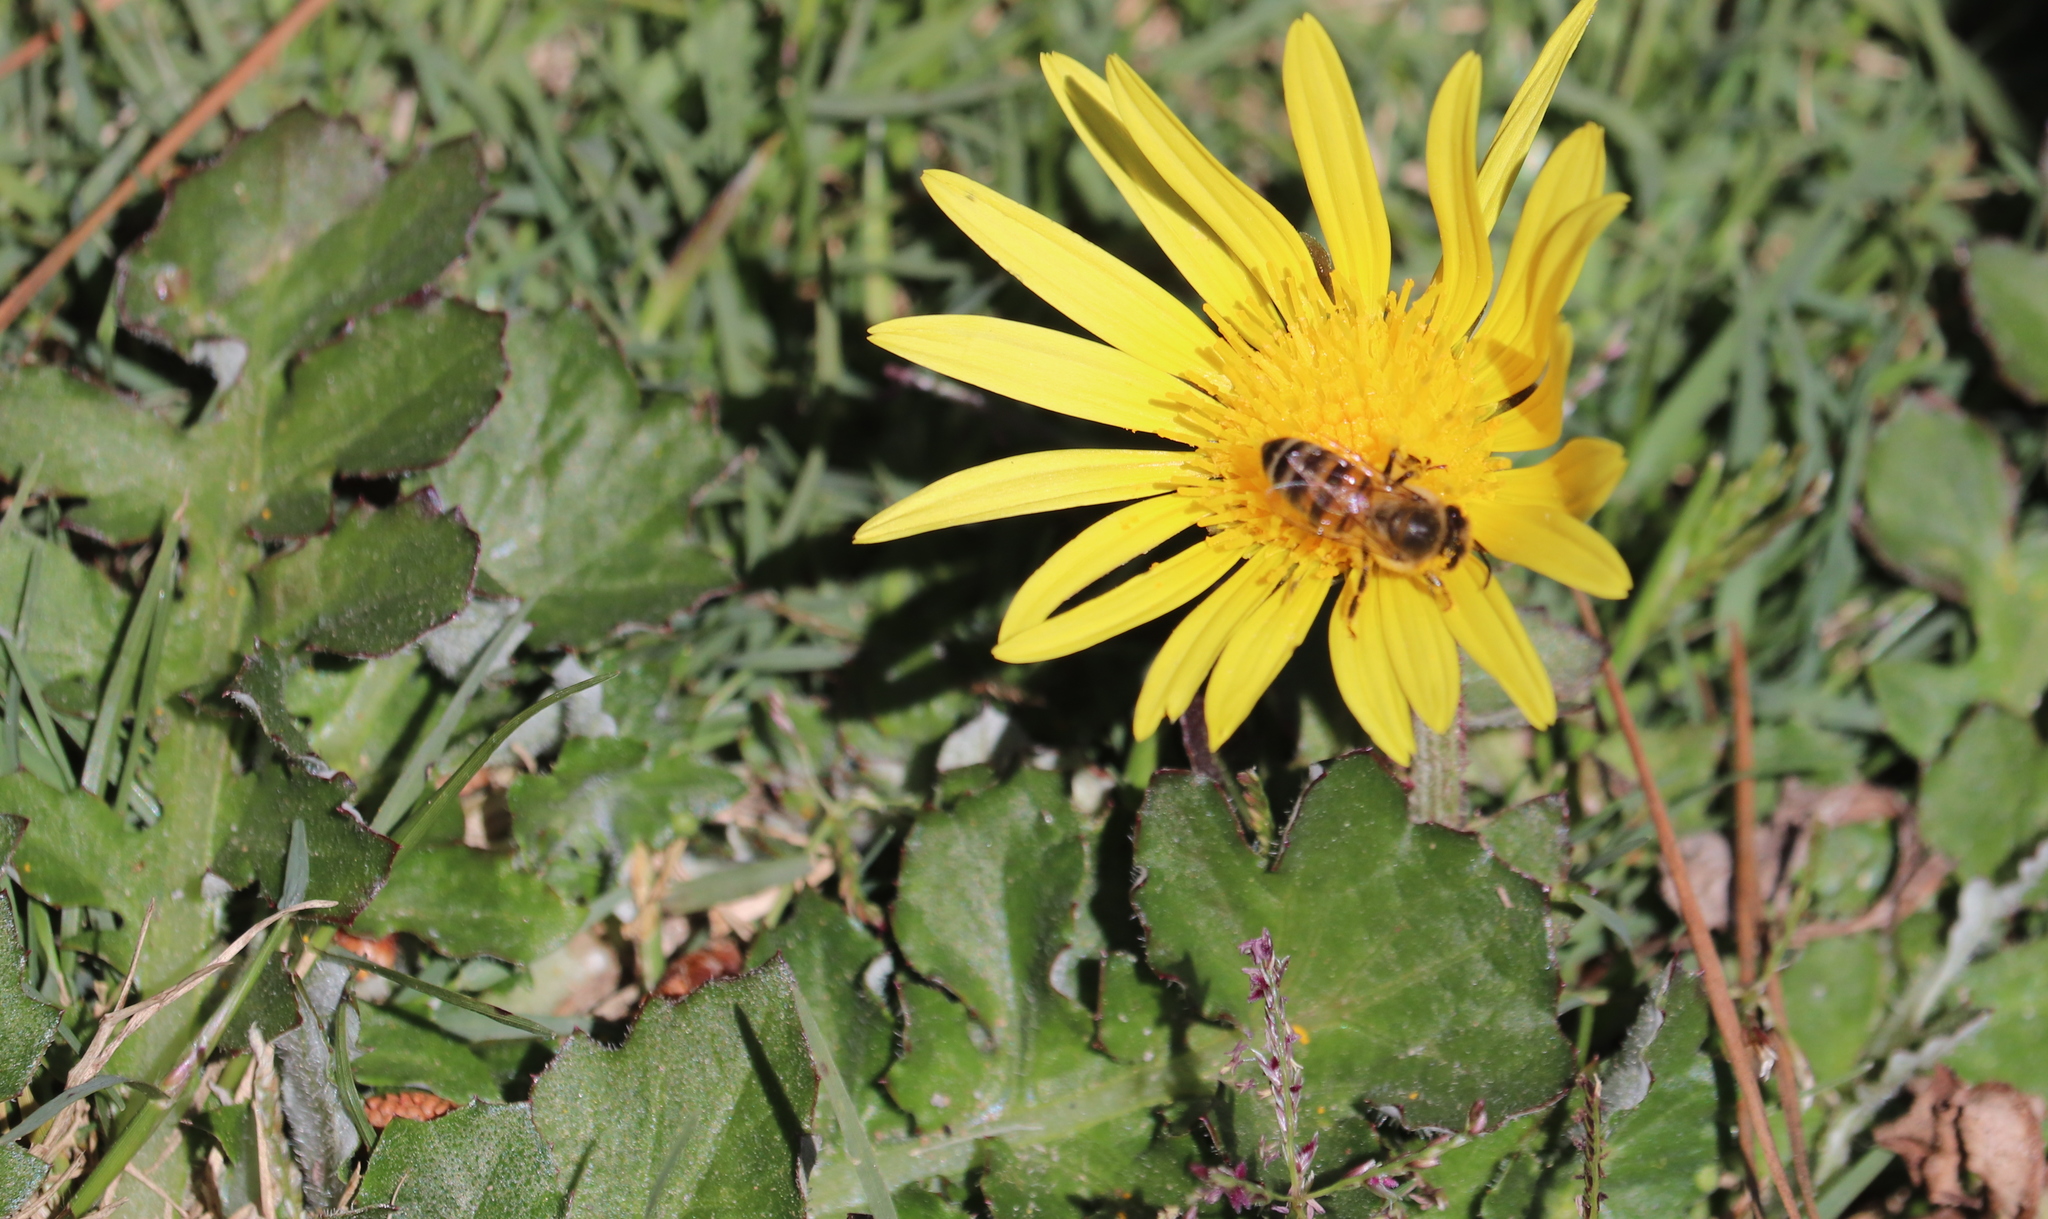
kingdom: Plantae
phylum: Tracheophyta
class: Magnoliopsida
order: Asterales
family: Asteraceae
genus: Arctotheca
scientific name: Arctotheca prostrata
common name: Capeweed
